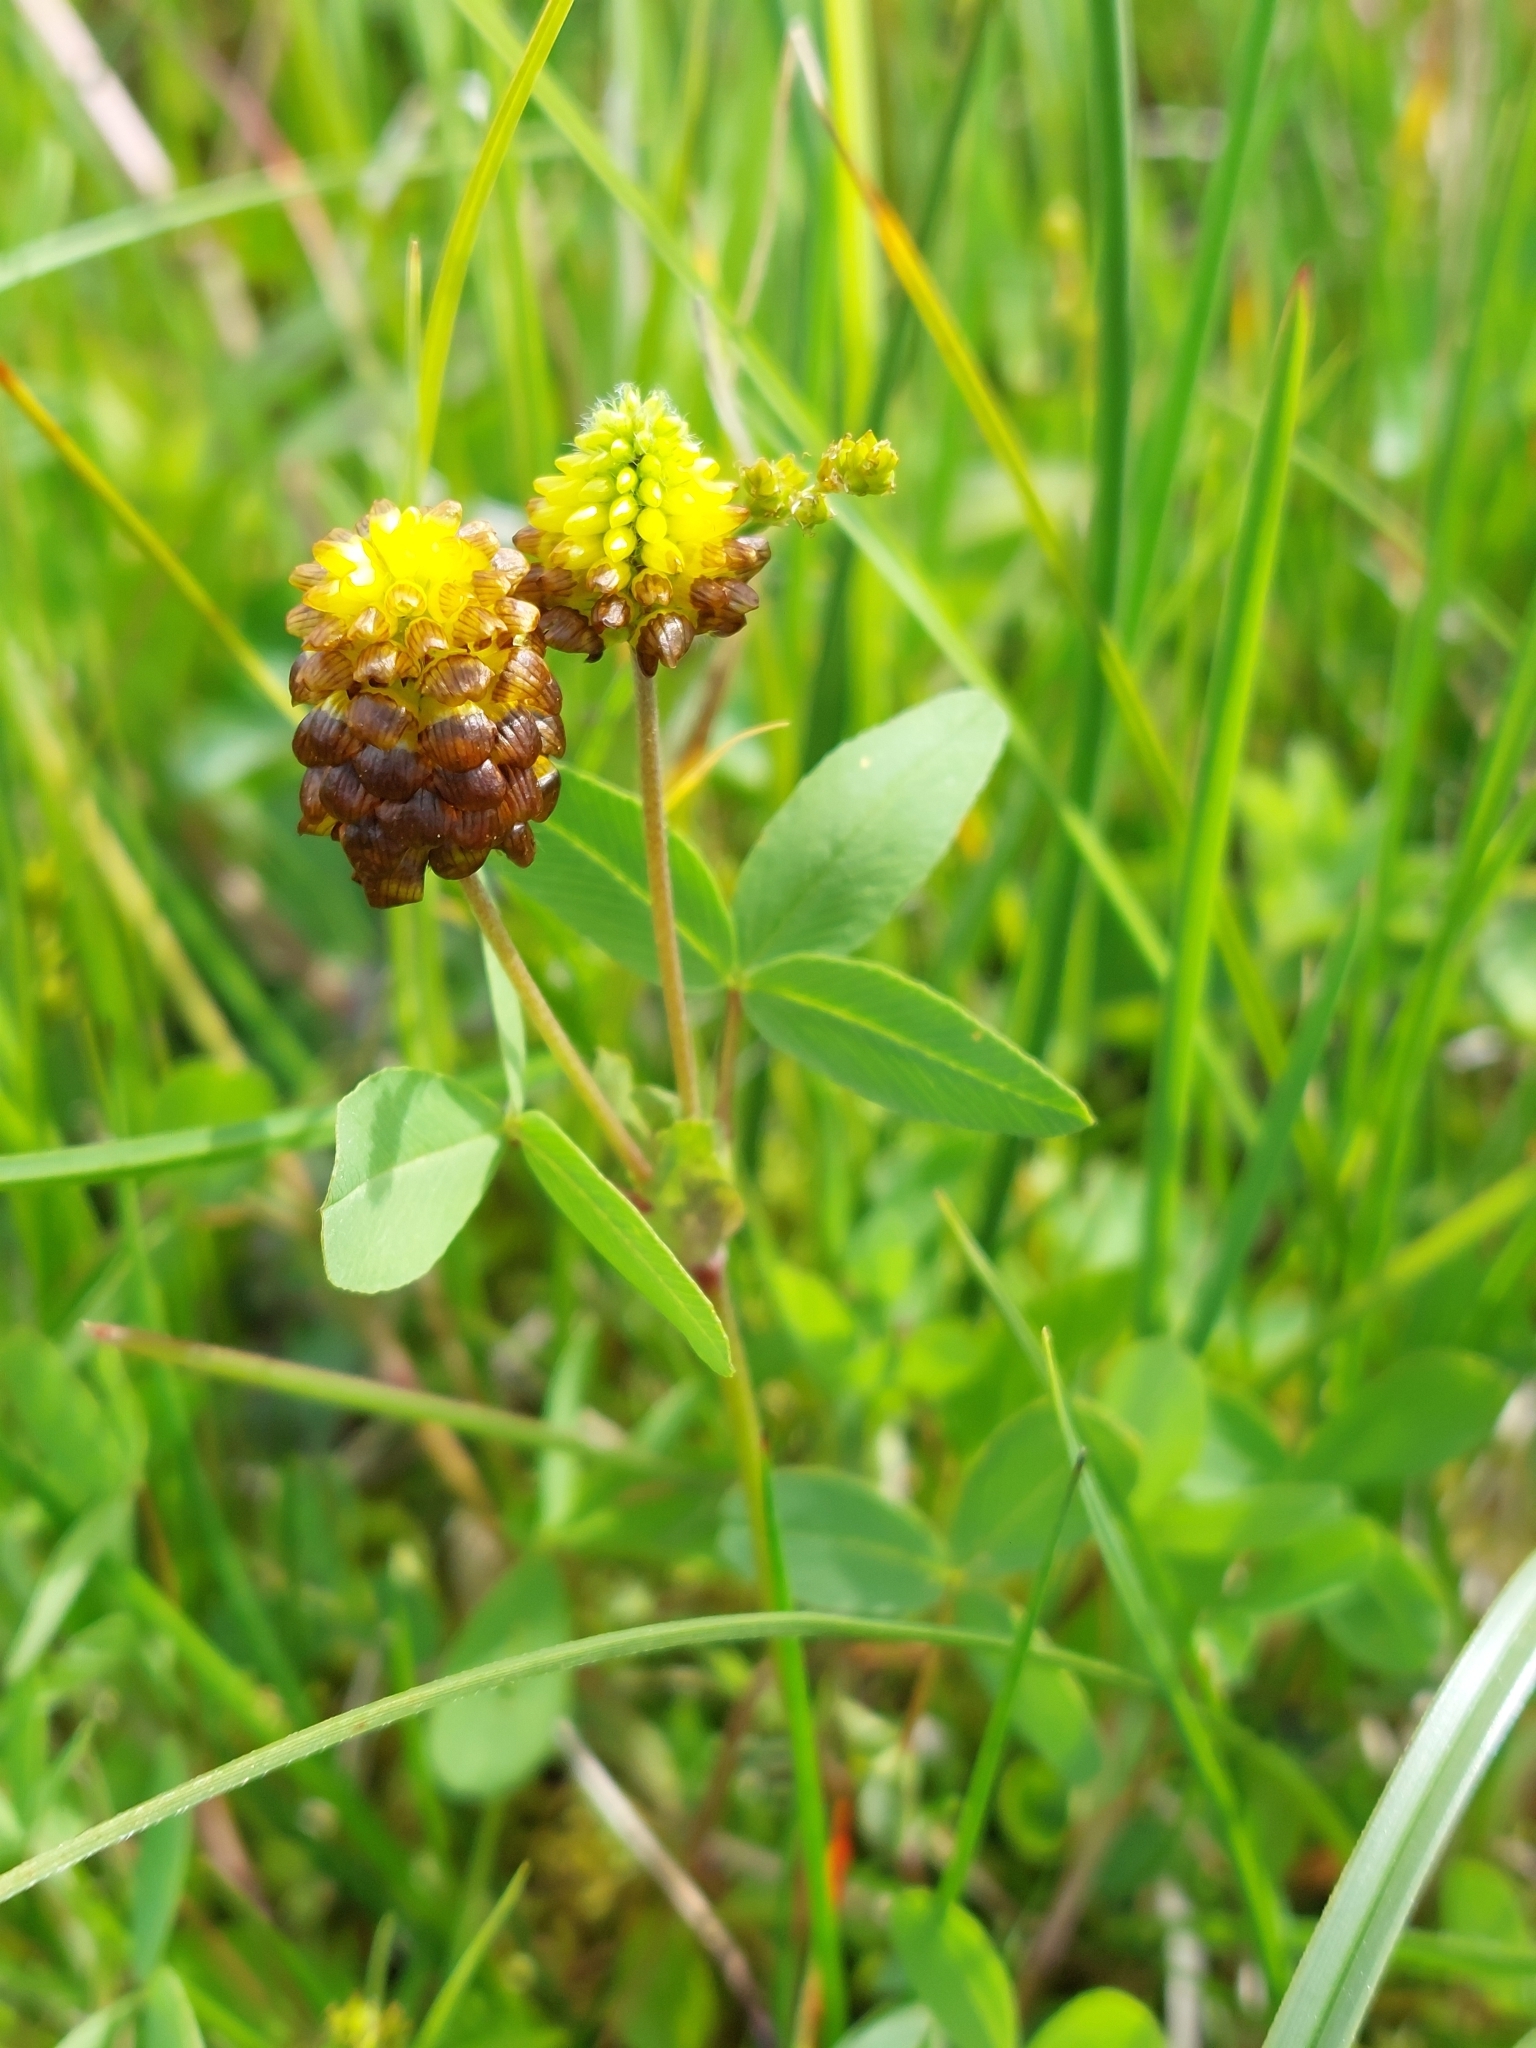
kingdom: Plantae
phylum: Tracheophyta
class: Magnoliopsida
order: Fabales
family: Fabaceae
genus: Trifolium
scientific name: Trifolium spadiceum
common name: Brown moor clover
